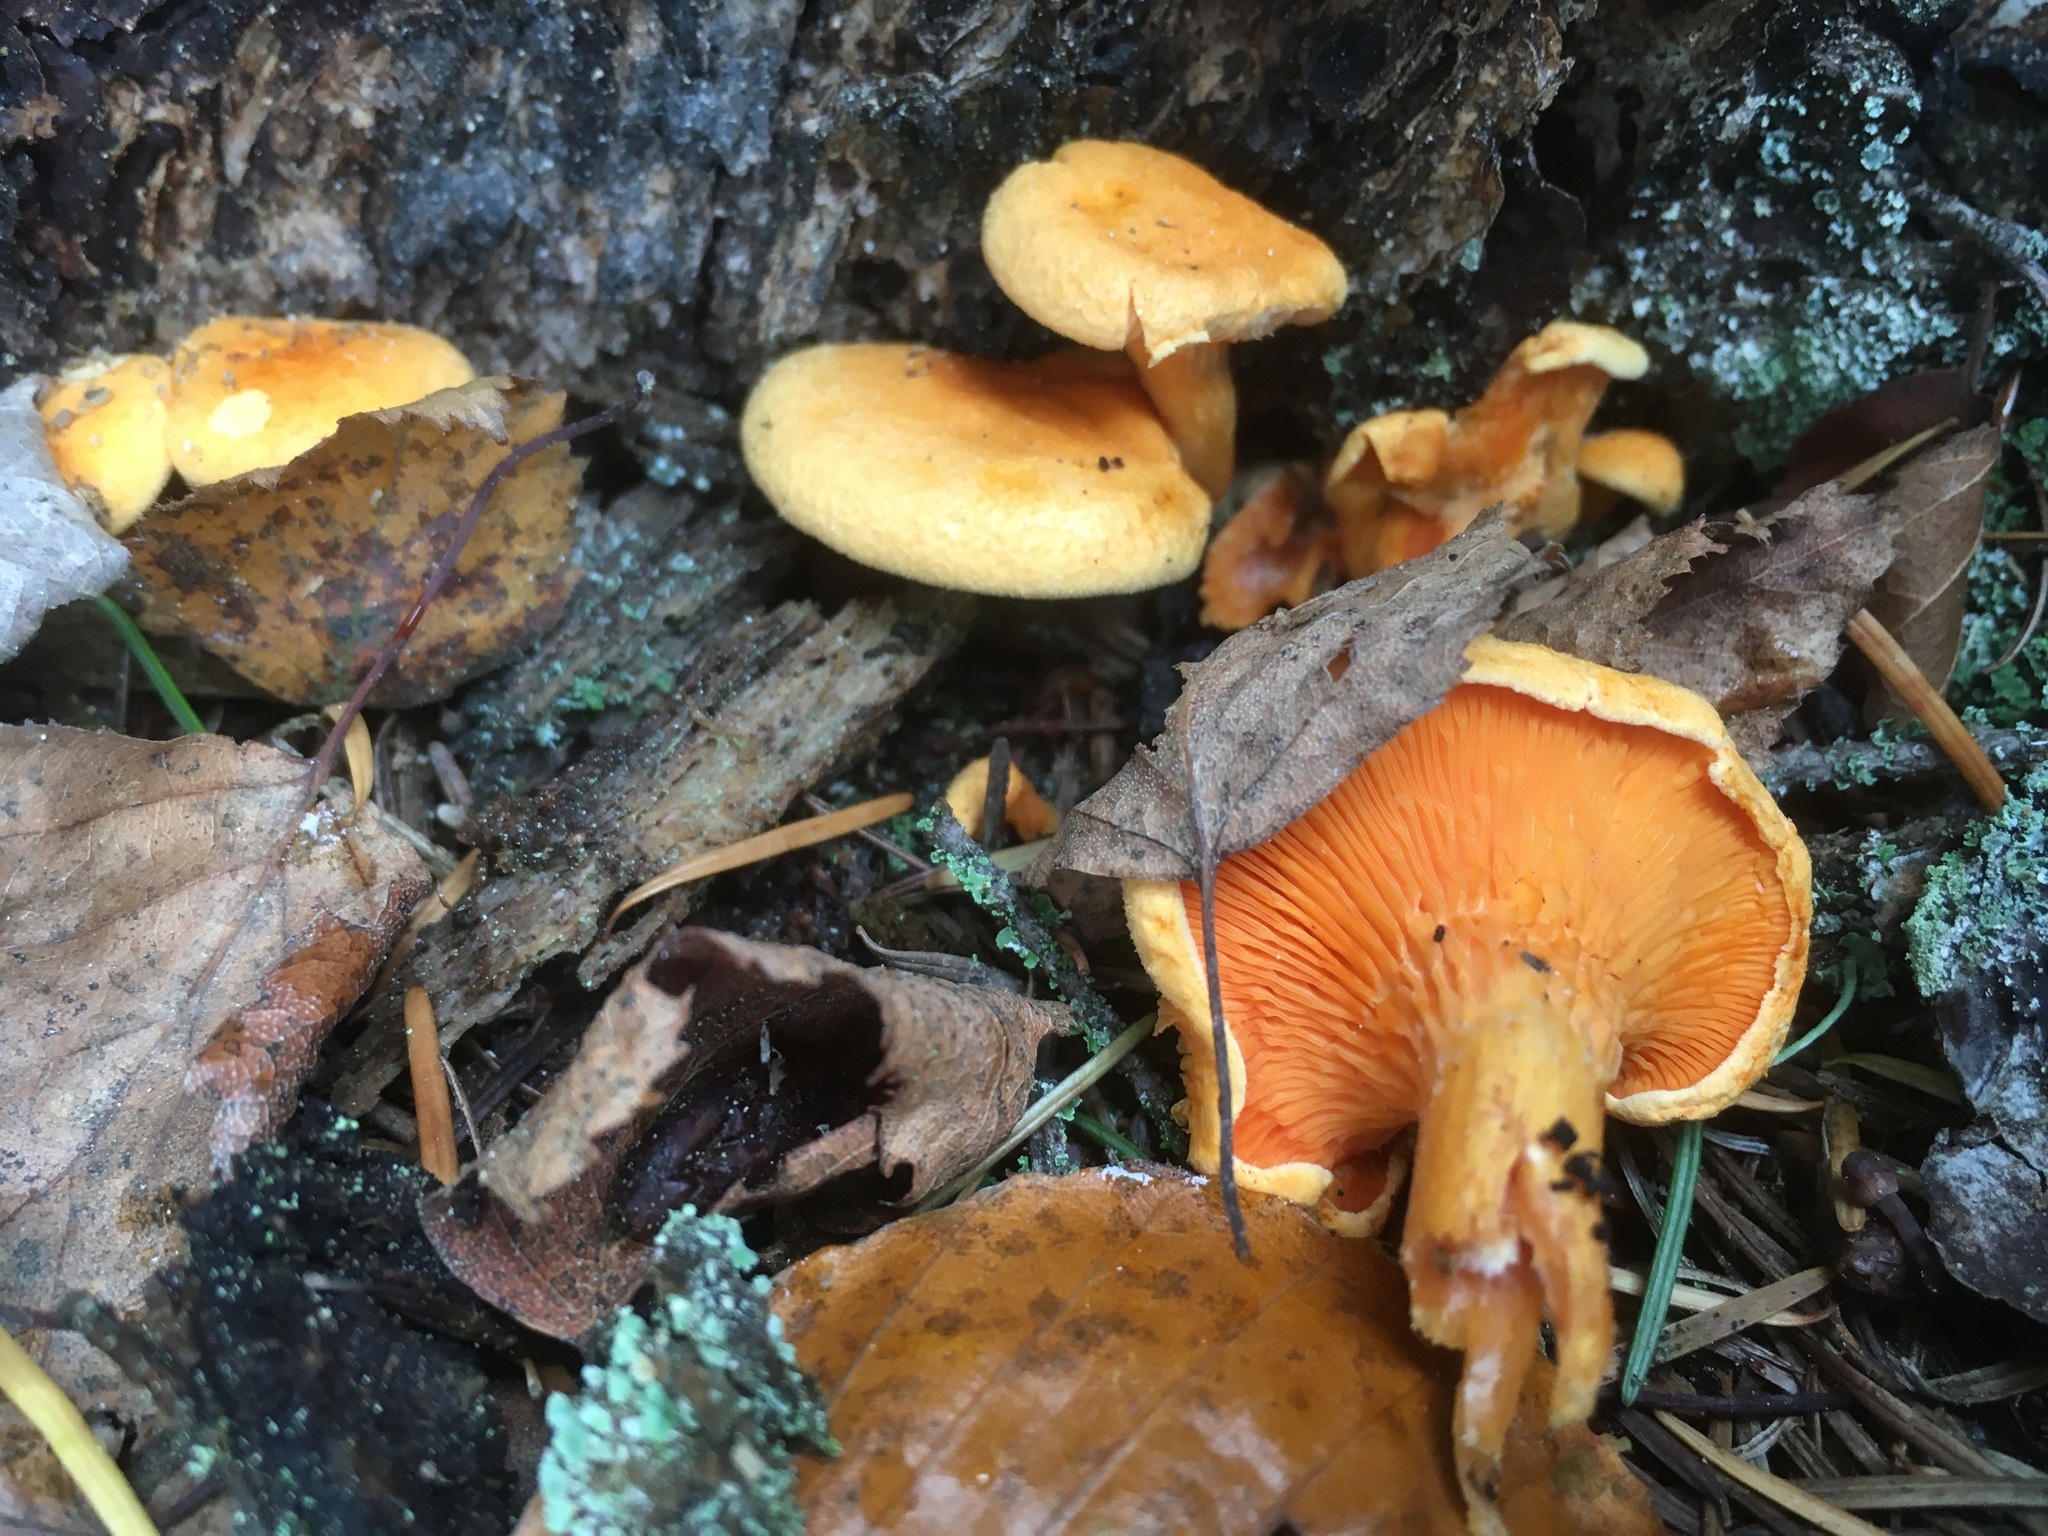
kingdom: Fungi
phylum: Basidiomycota
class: Agaricomycetes
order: Boletales
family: Hygrophoropsidaceae
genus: Hygrophoropsis
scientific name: Hygrophoropsis aurantiaca
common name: False chanterelle
